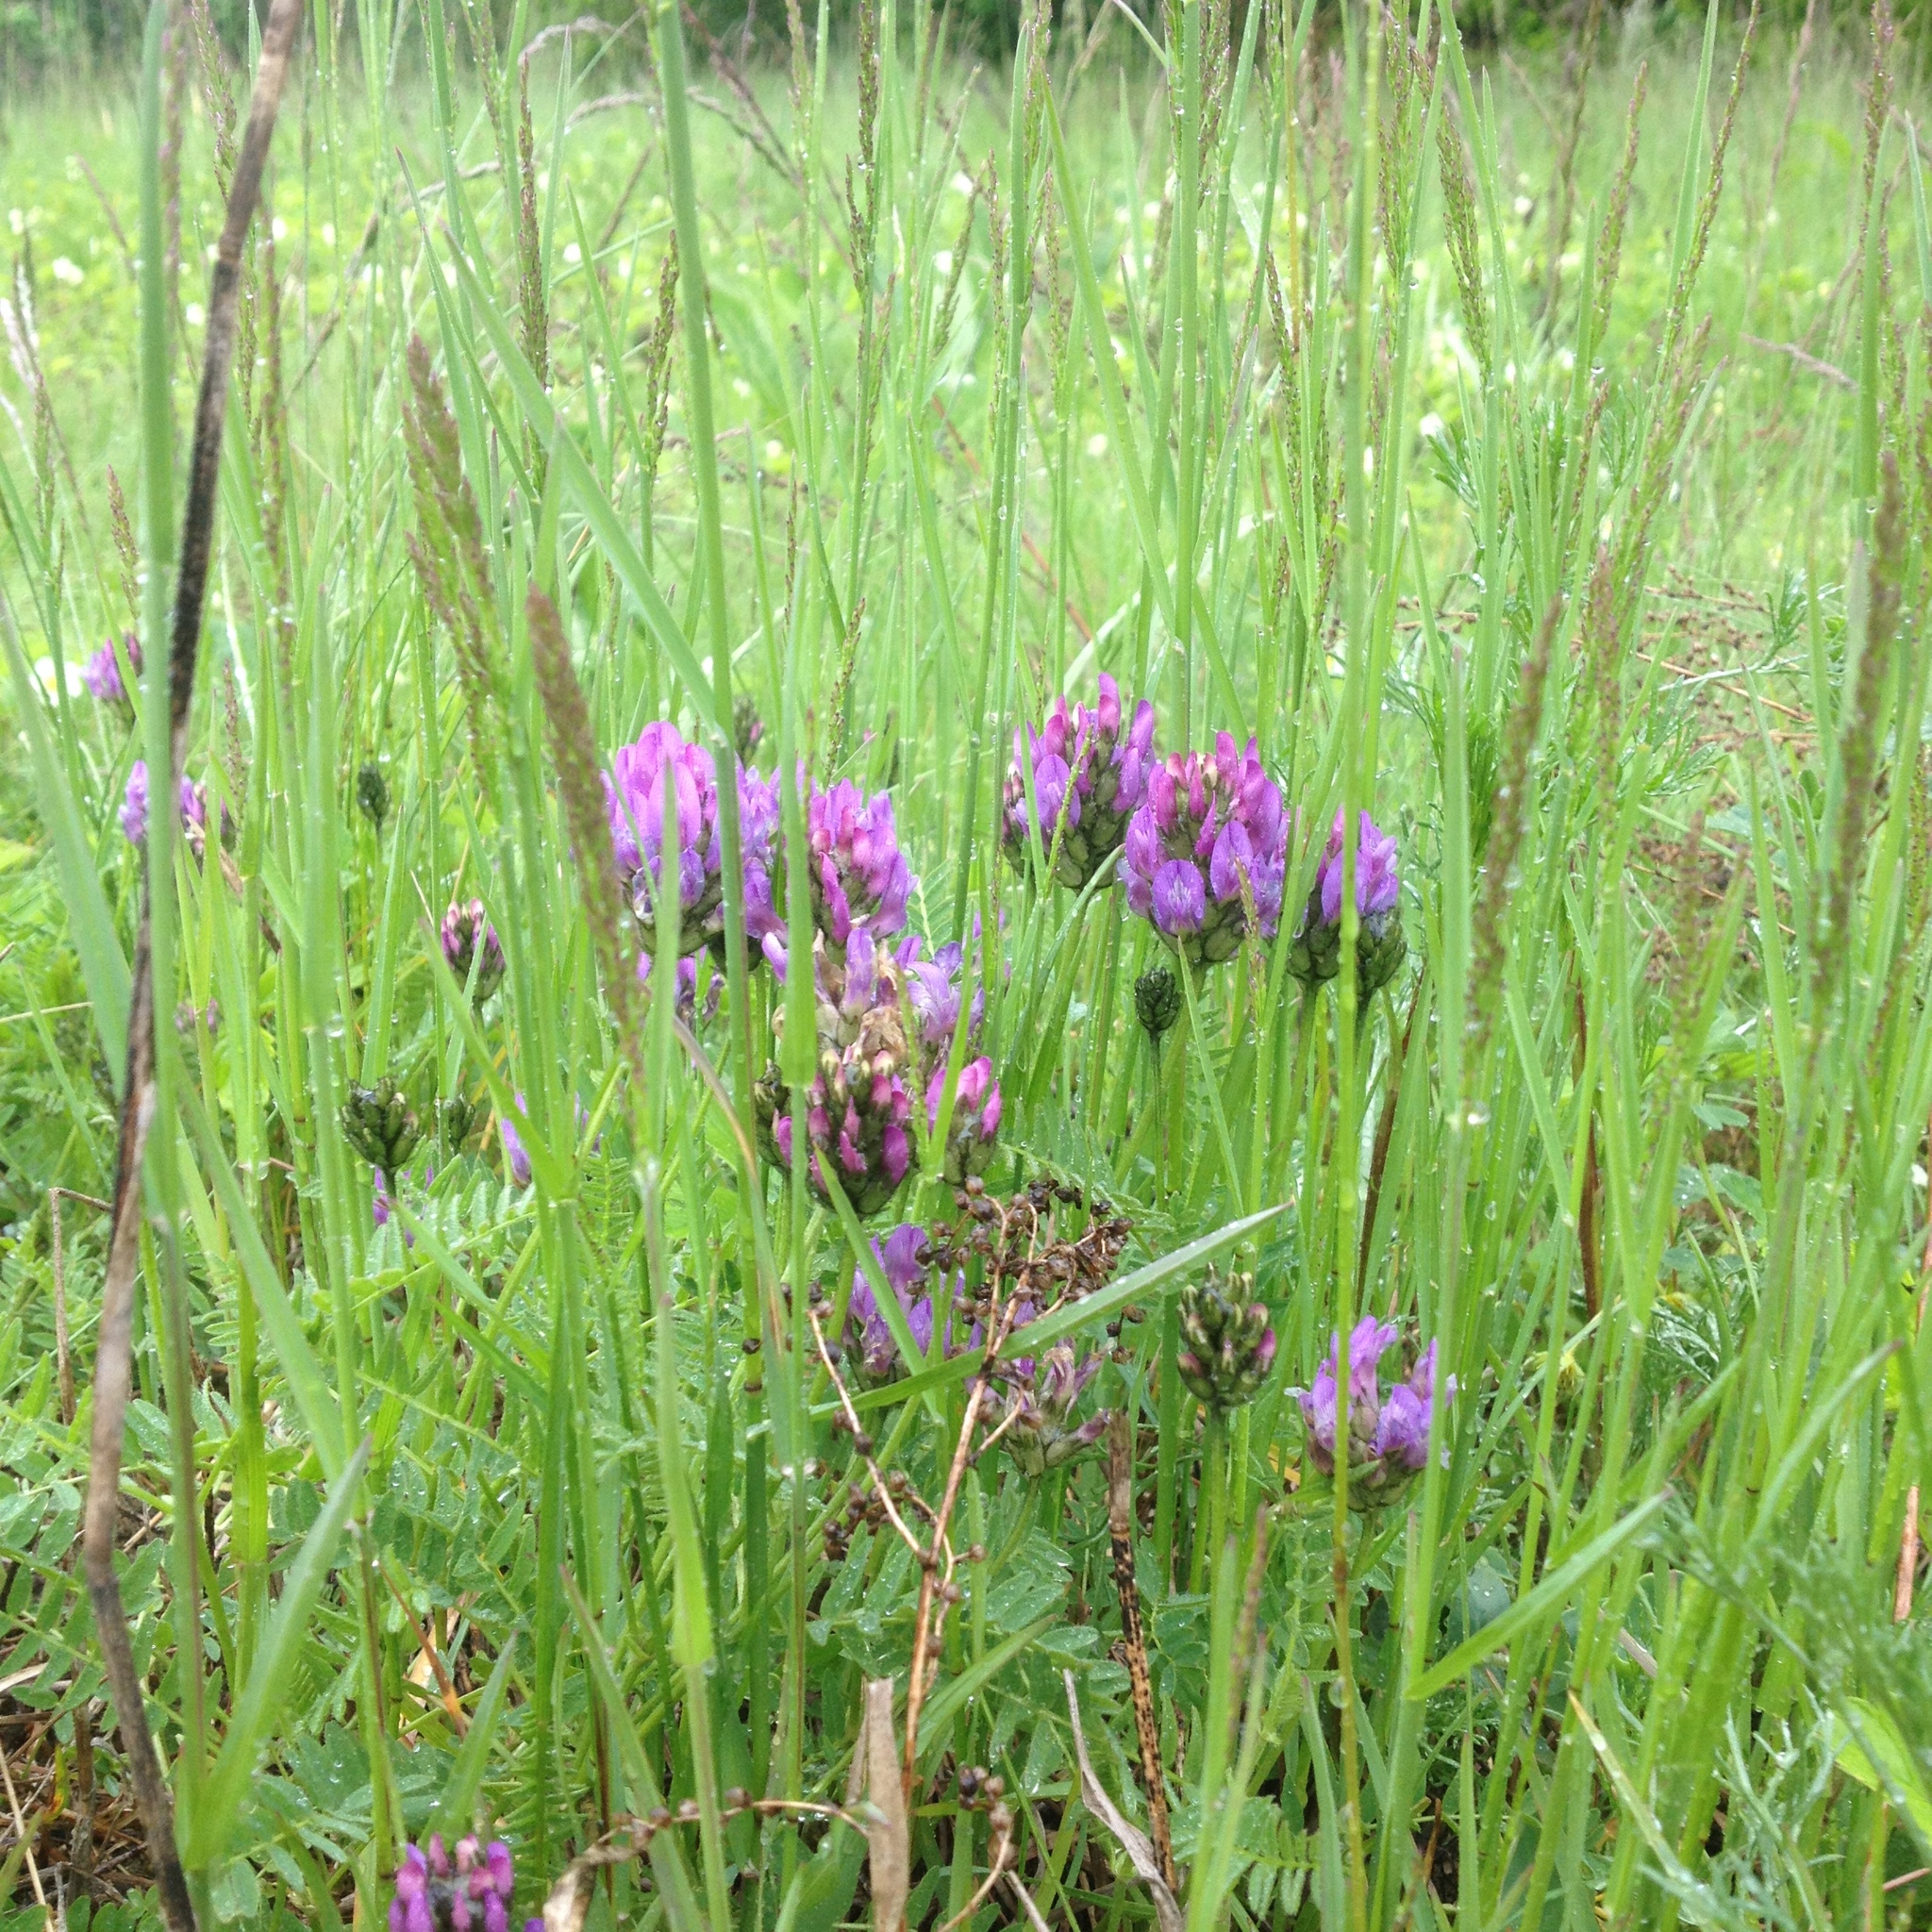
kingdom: Plantae
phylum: Tracheophyta
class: Magnoliopsida
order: Fabales
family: Fabaceae
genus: Astragalus
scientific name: Astragalus danicus
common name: Purple milk-vetch
